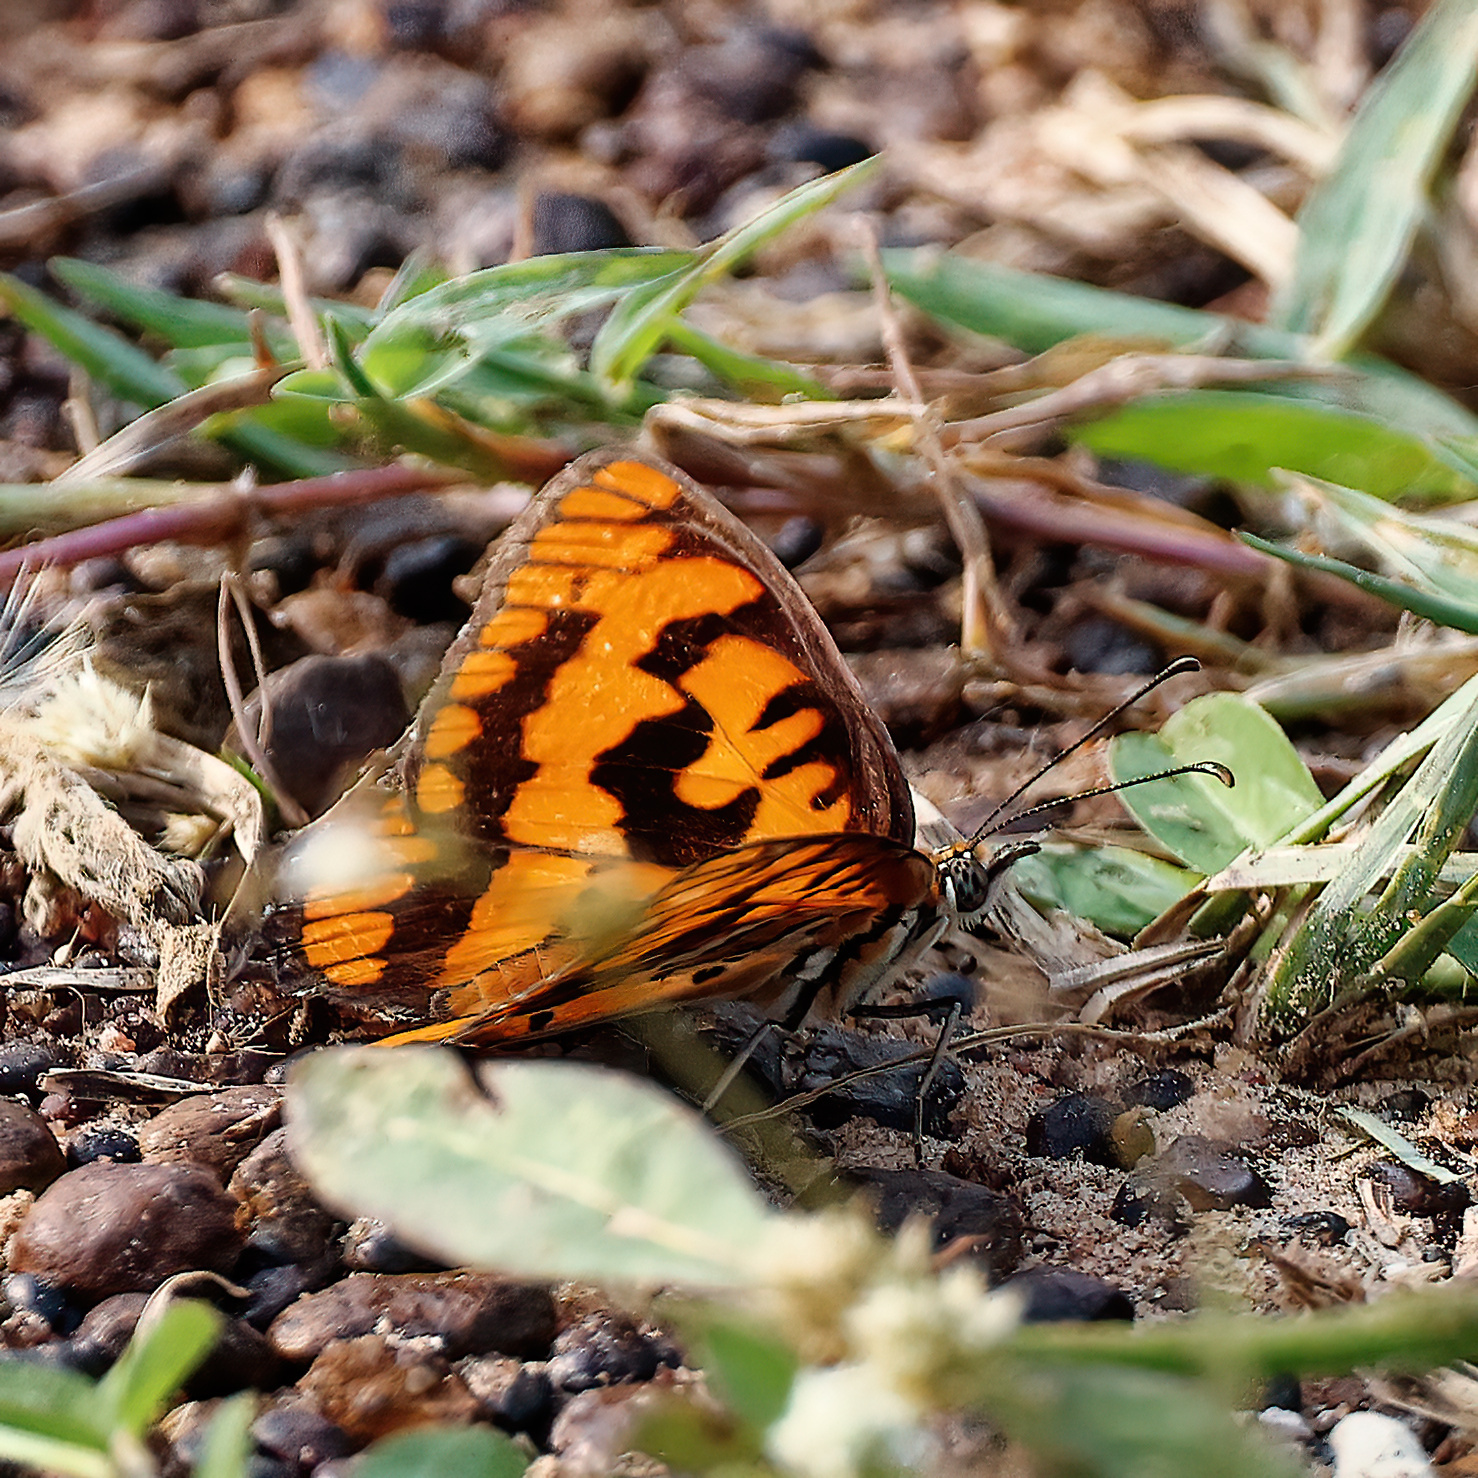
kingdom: Animalia
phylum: Arthropoda
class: Insecta
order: Lepidoptera
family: Nymphalidae
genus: Byblia
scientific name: Byblia ilithyia
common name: Spotted joker
